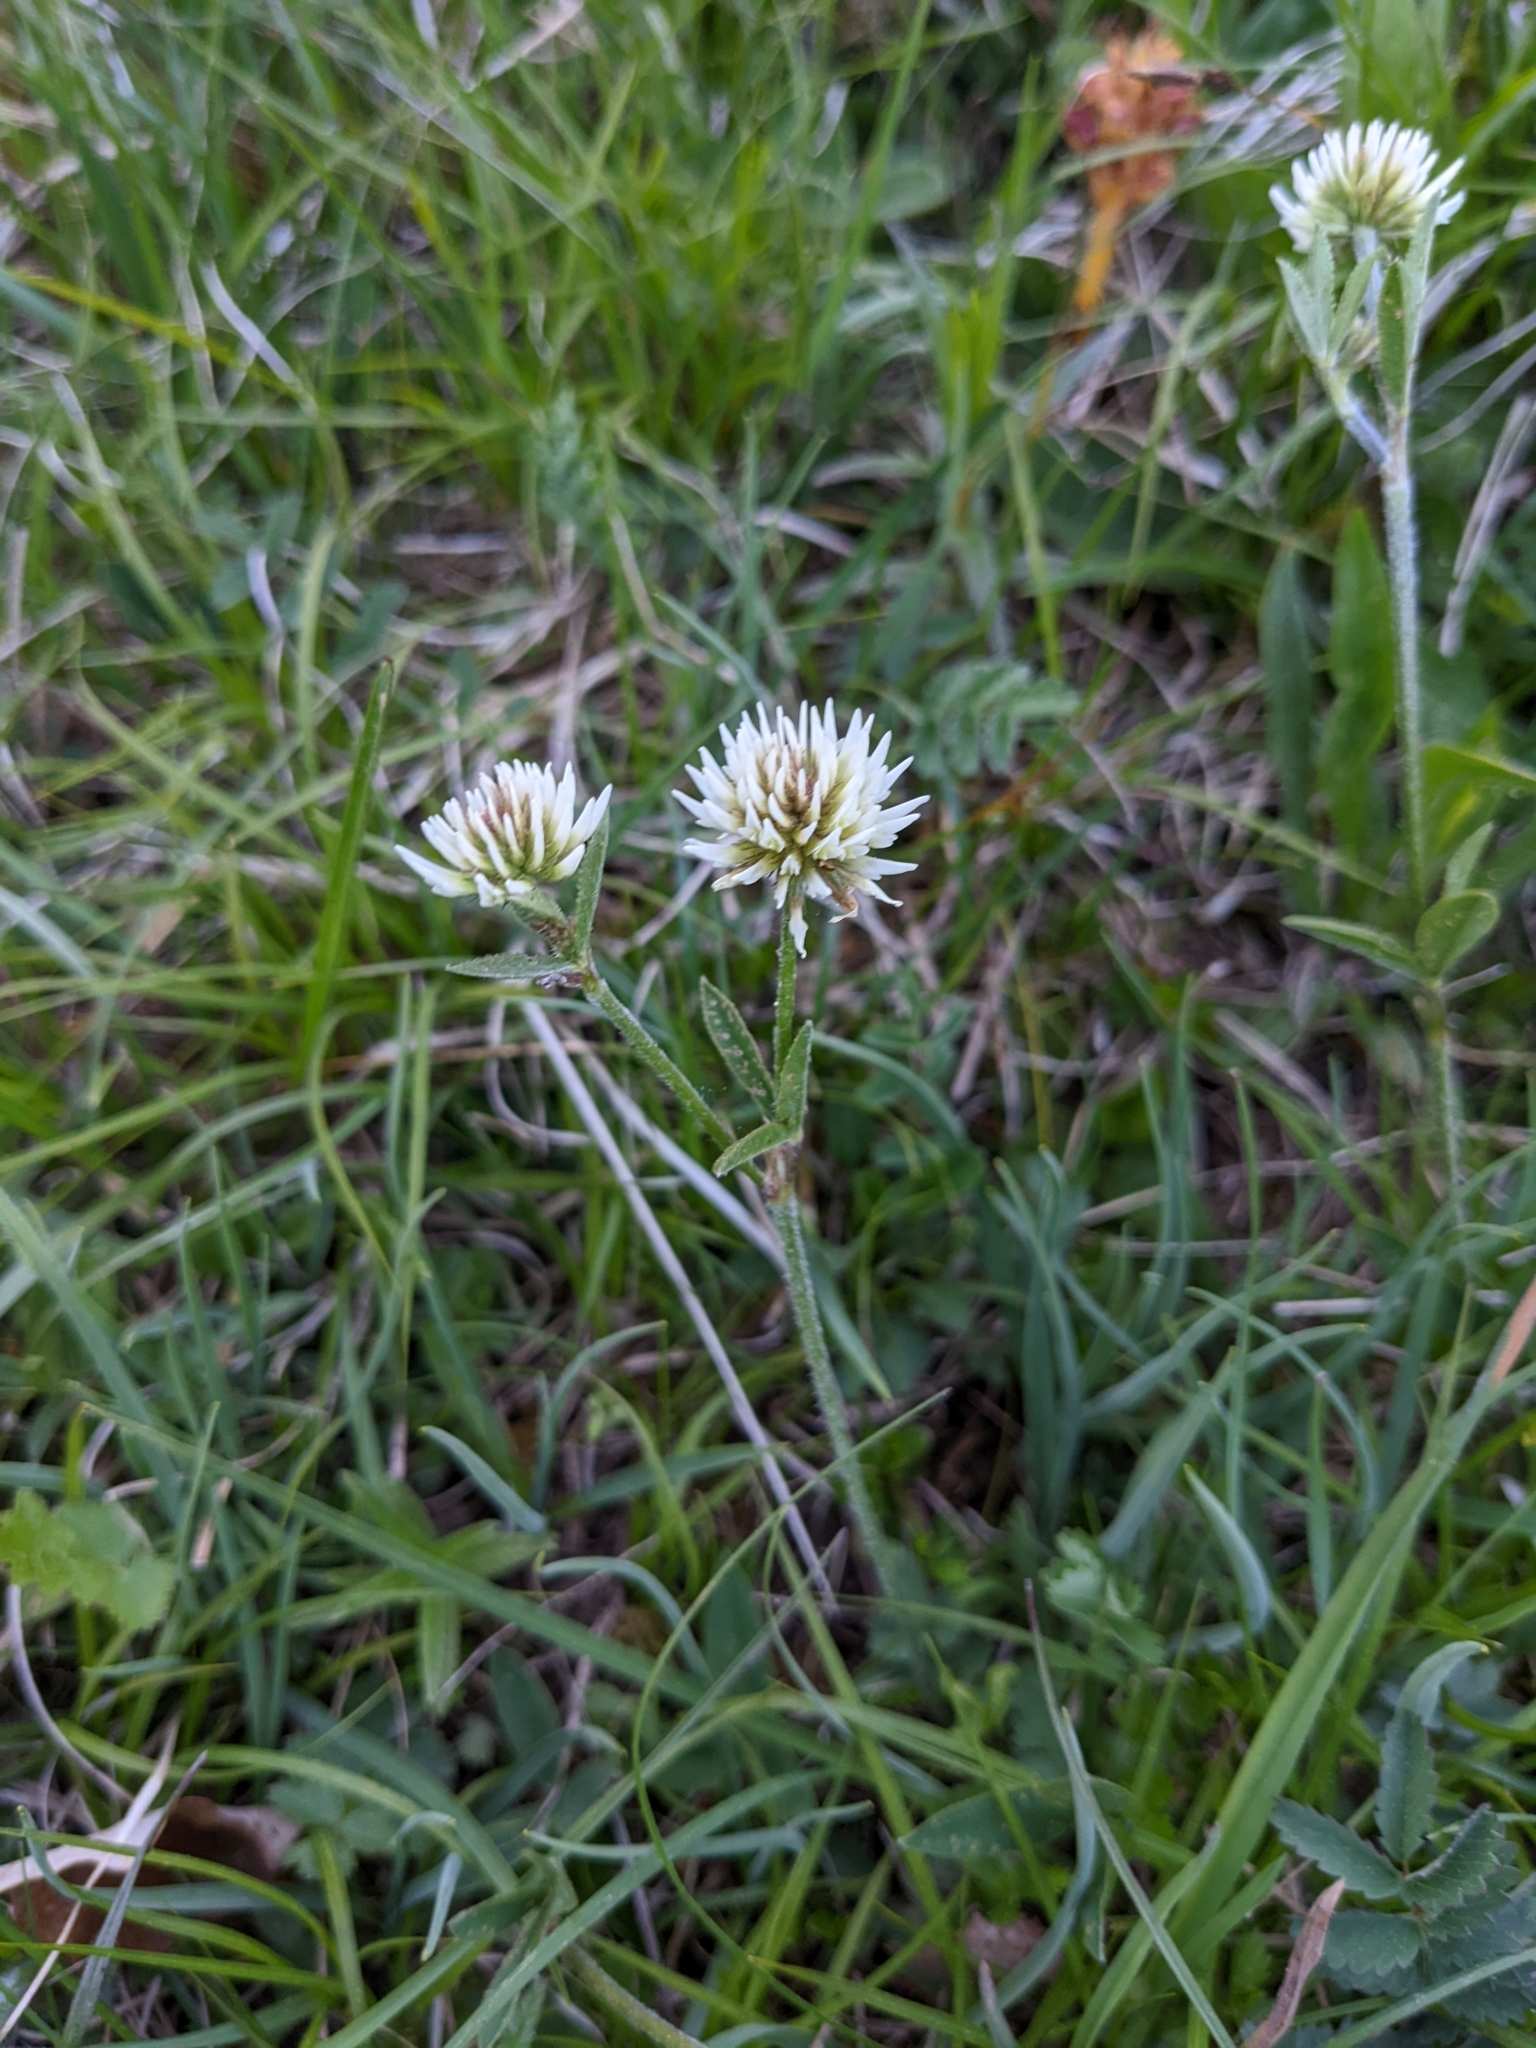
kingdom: Plantae
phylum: Tracheophyta
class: Magnoliopsida
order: Fabales
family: Fabaceae
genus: Trifolium
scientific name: Trifolium montanum
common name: Mountain clover
